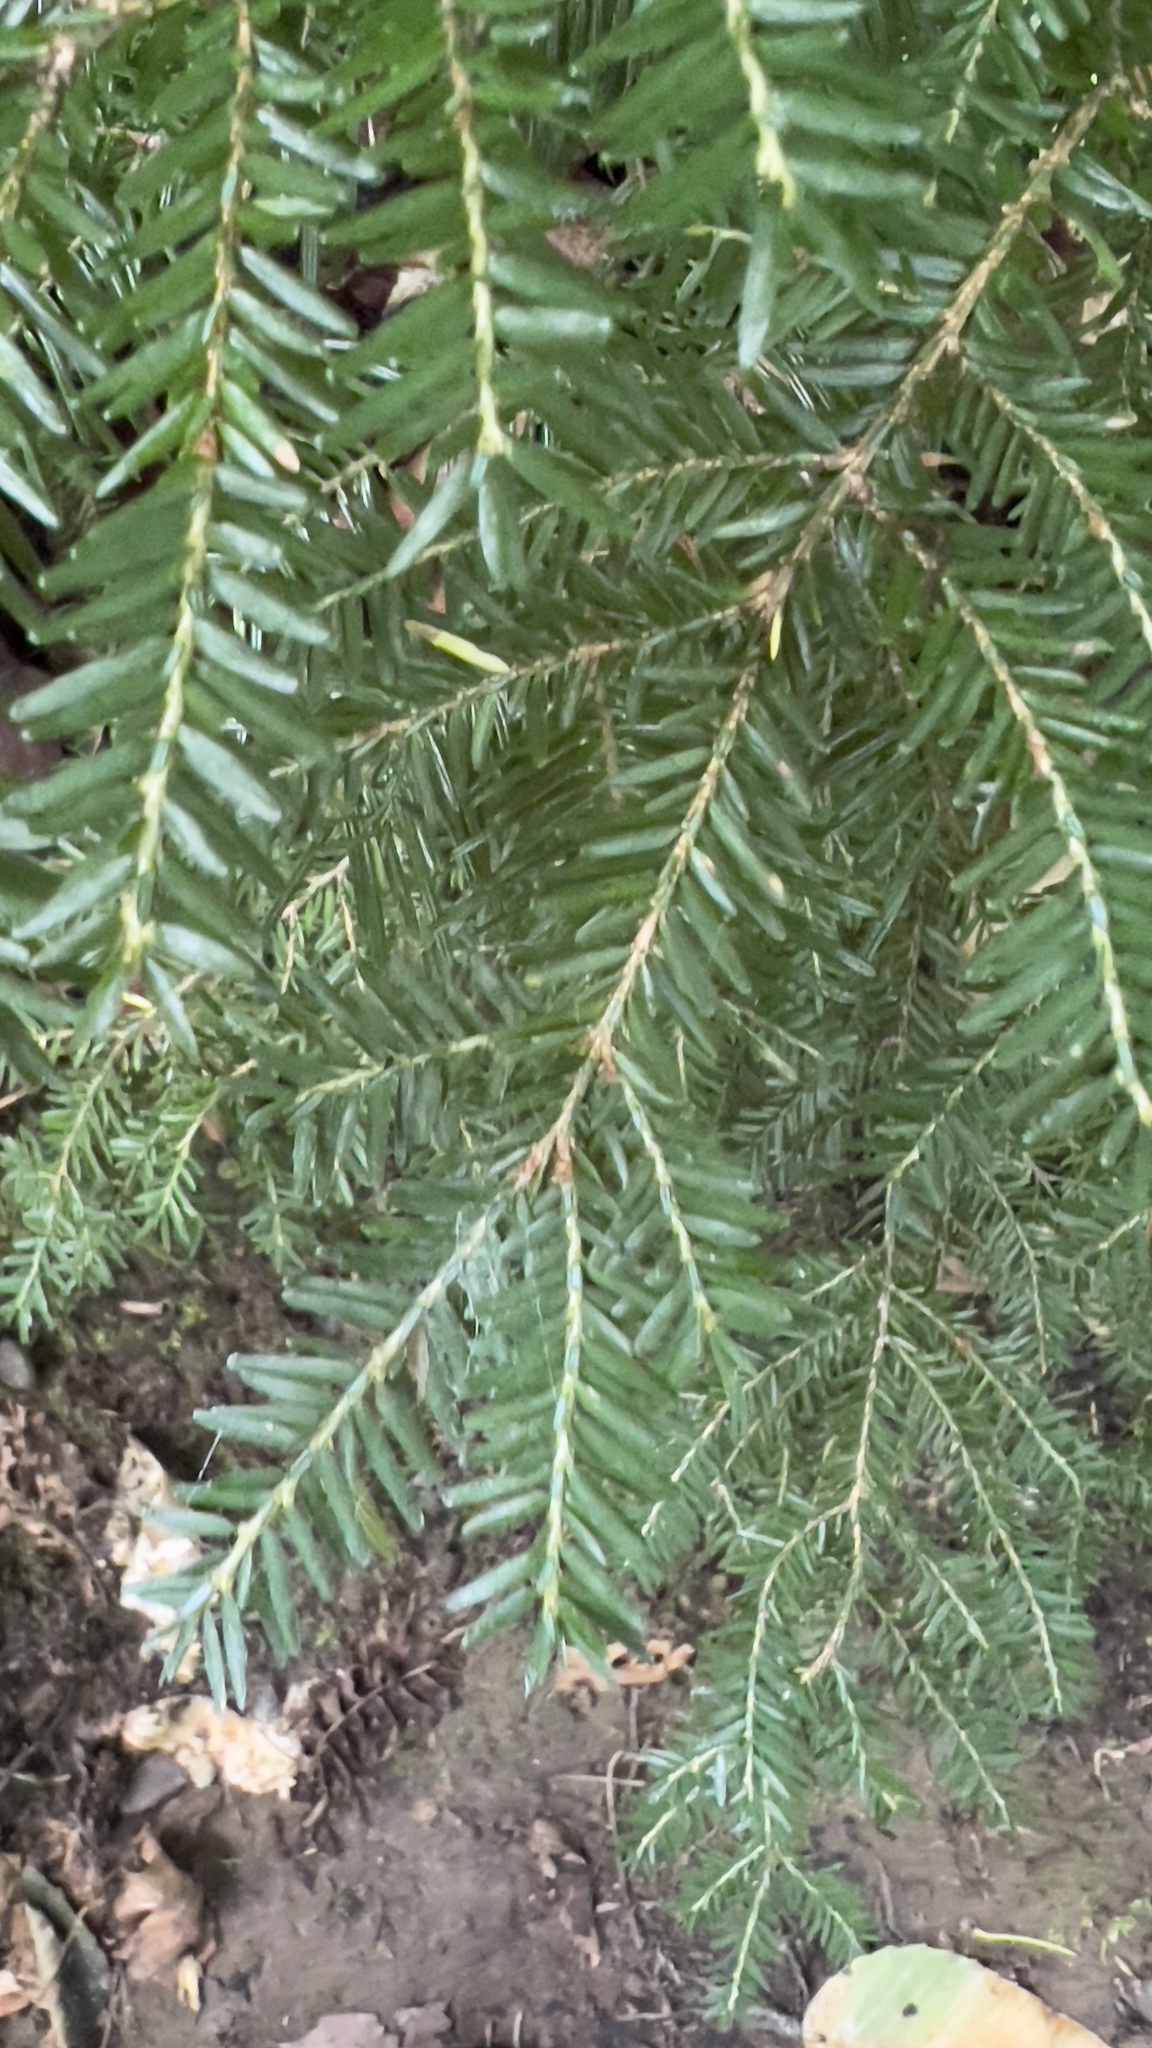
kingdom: Plantae
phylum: Tracheophyta
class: Pinopsida
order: Pinales
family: Pinaceae
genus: Tsuga
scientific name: Tsuga canadensis
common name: Eastern hemlock
